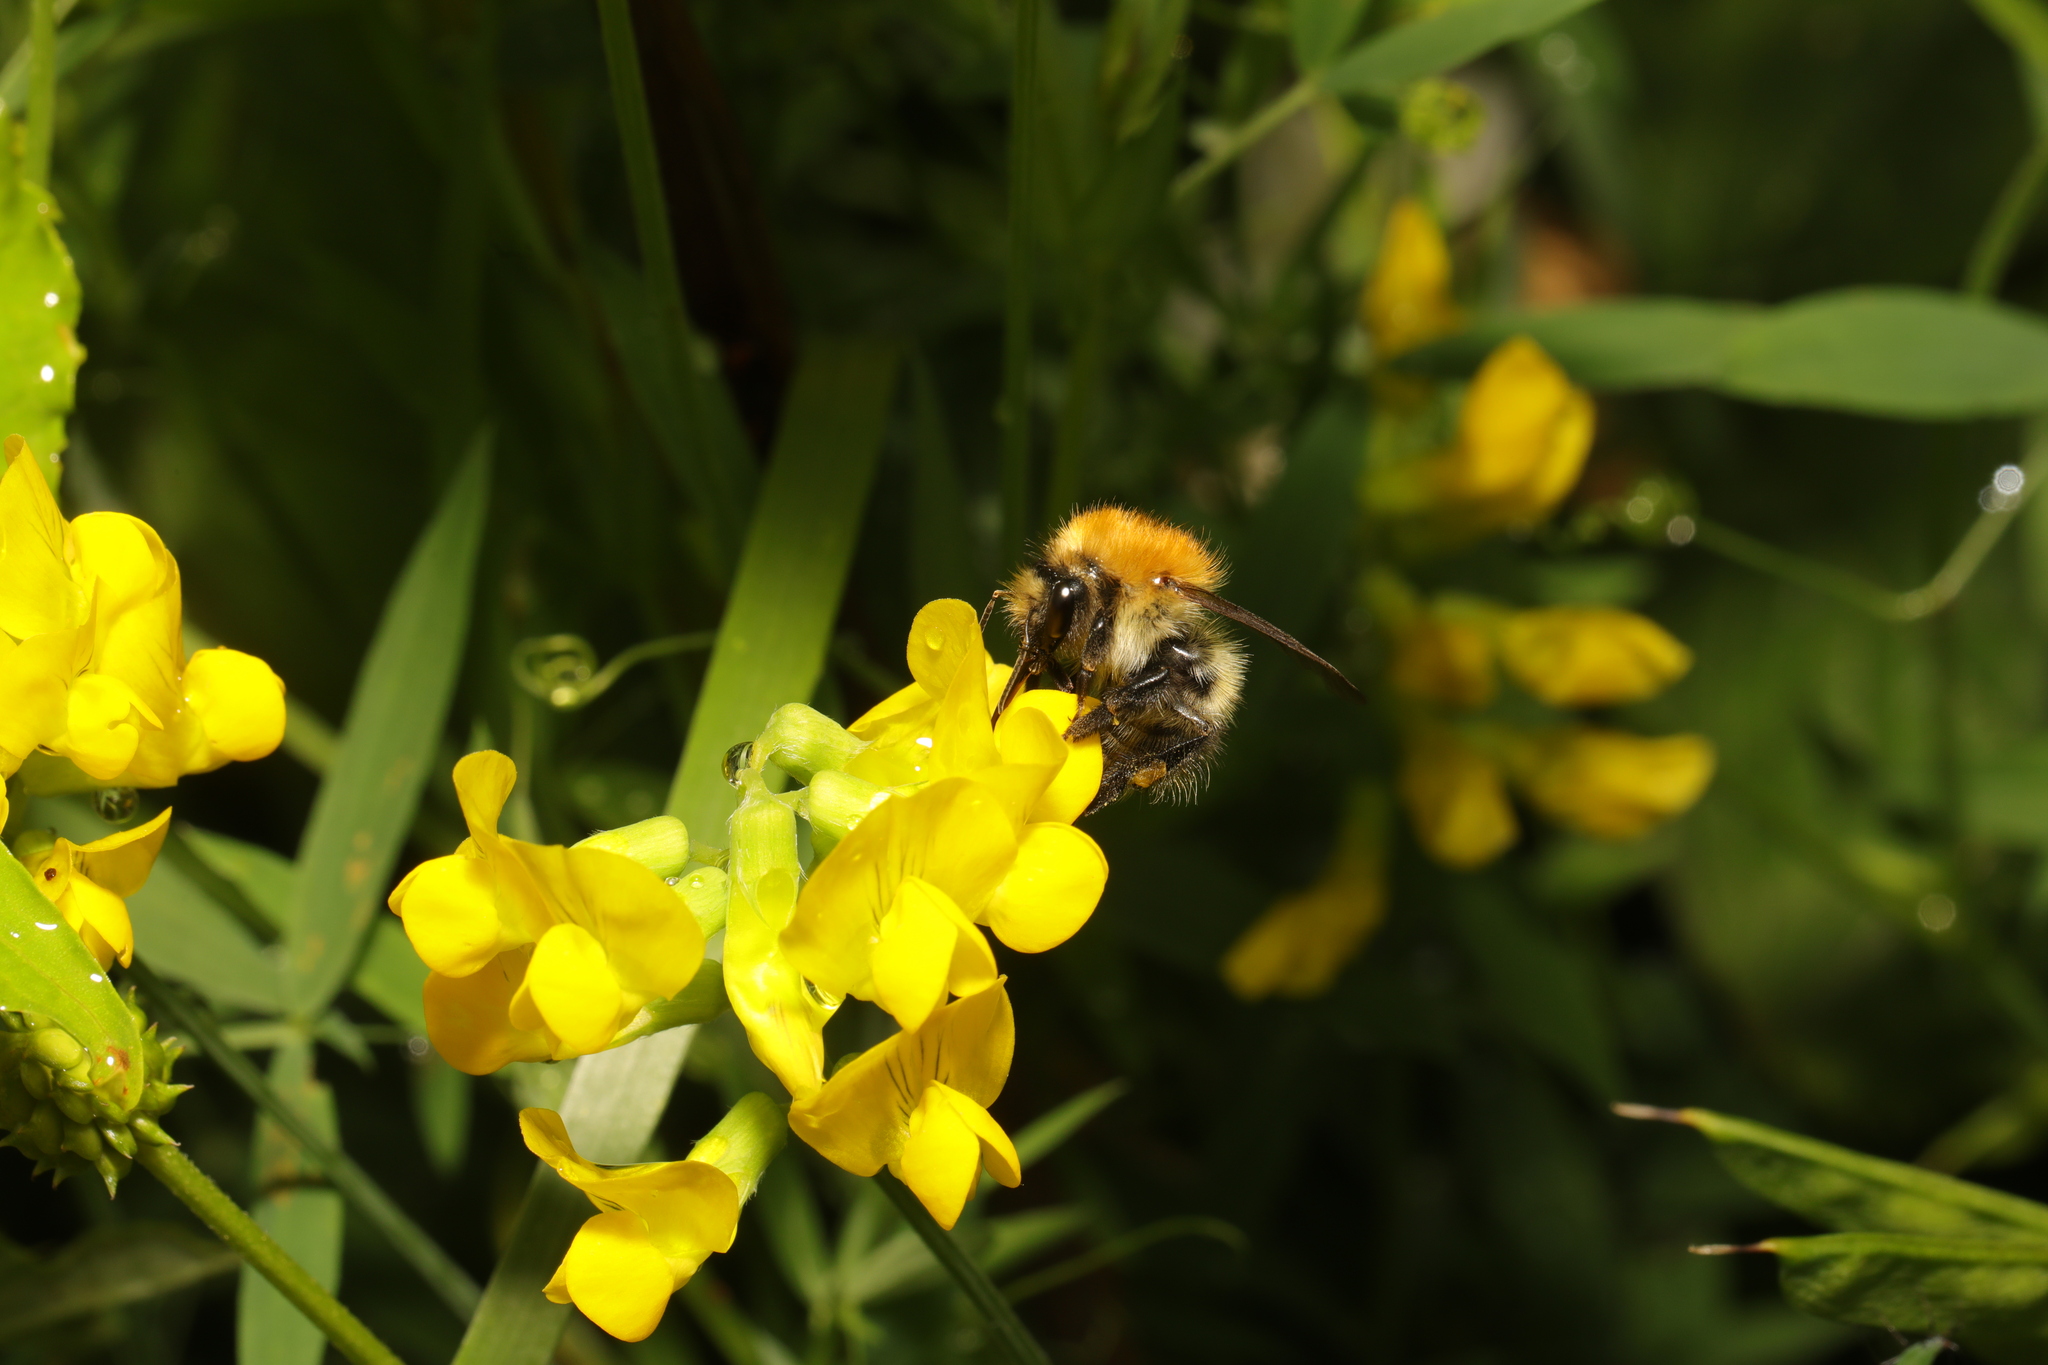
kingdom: Animalia
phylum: Arthropoda
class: Insecta
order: Hymenoptera
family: Apidae
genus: Bombus
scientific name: Bombus pascuorum
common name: Common carder bee
